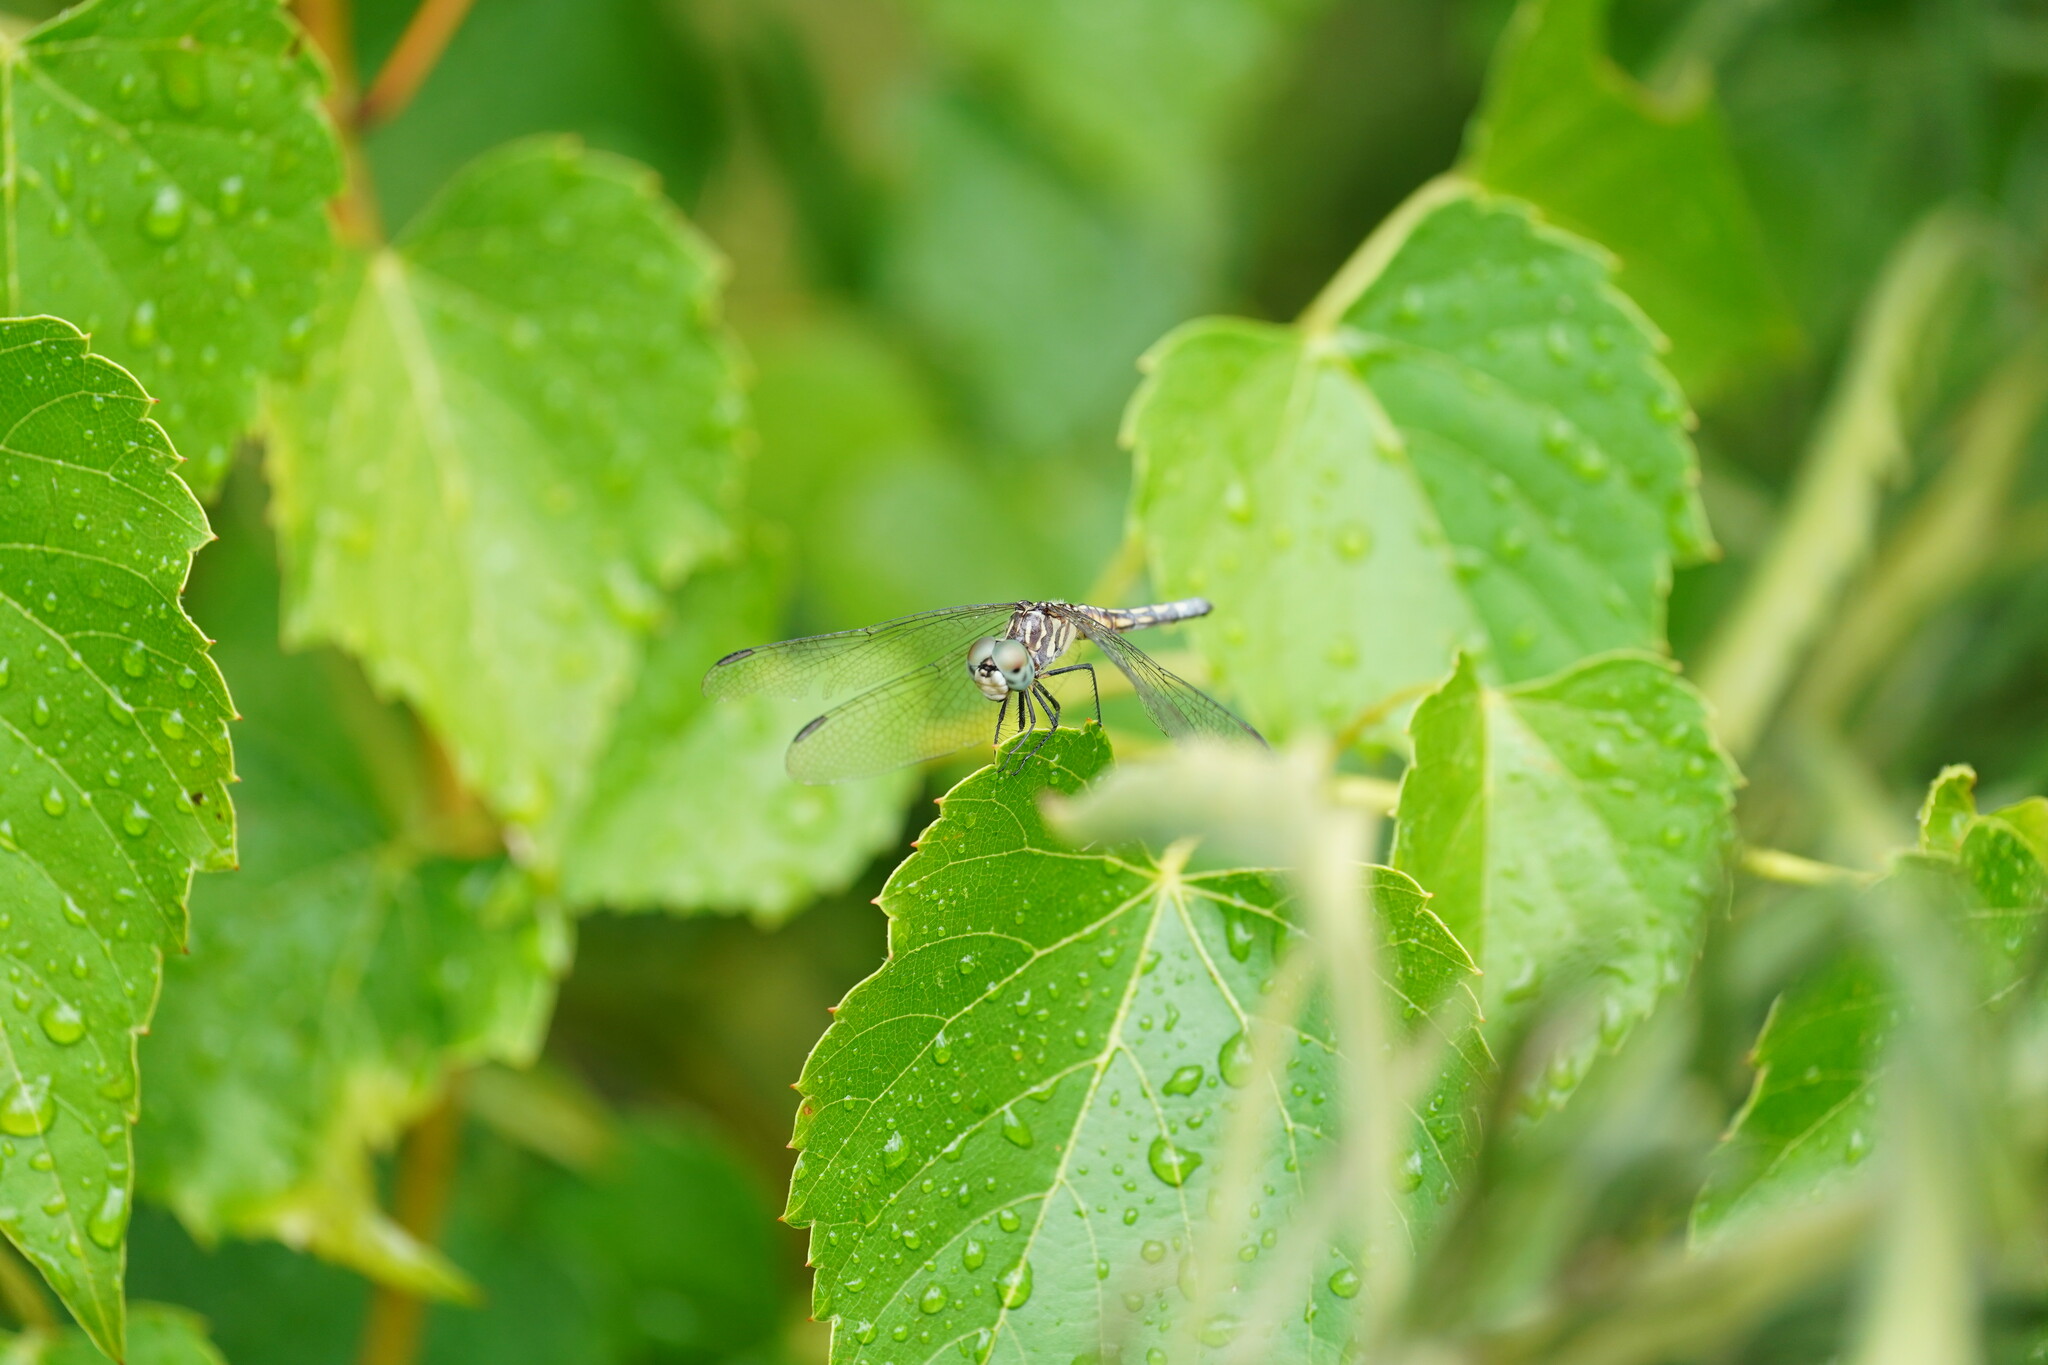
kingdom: Animalia
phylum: Arthropoda
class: Insecta
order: Odonata
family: Libellulidae
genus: Pachydiplax
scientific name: Pachydiplax longipennis
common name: Blue dasher
